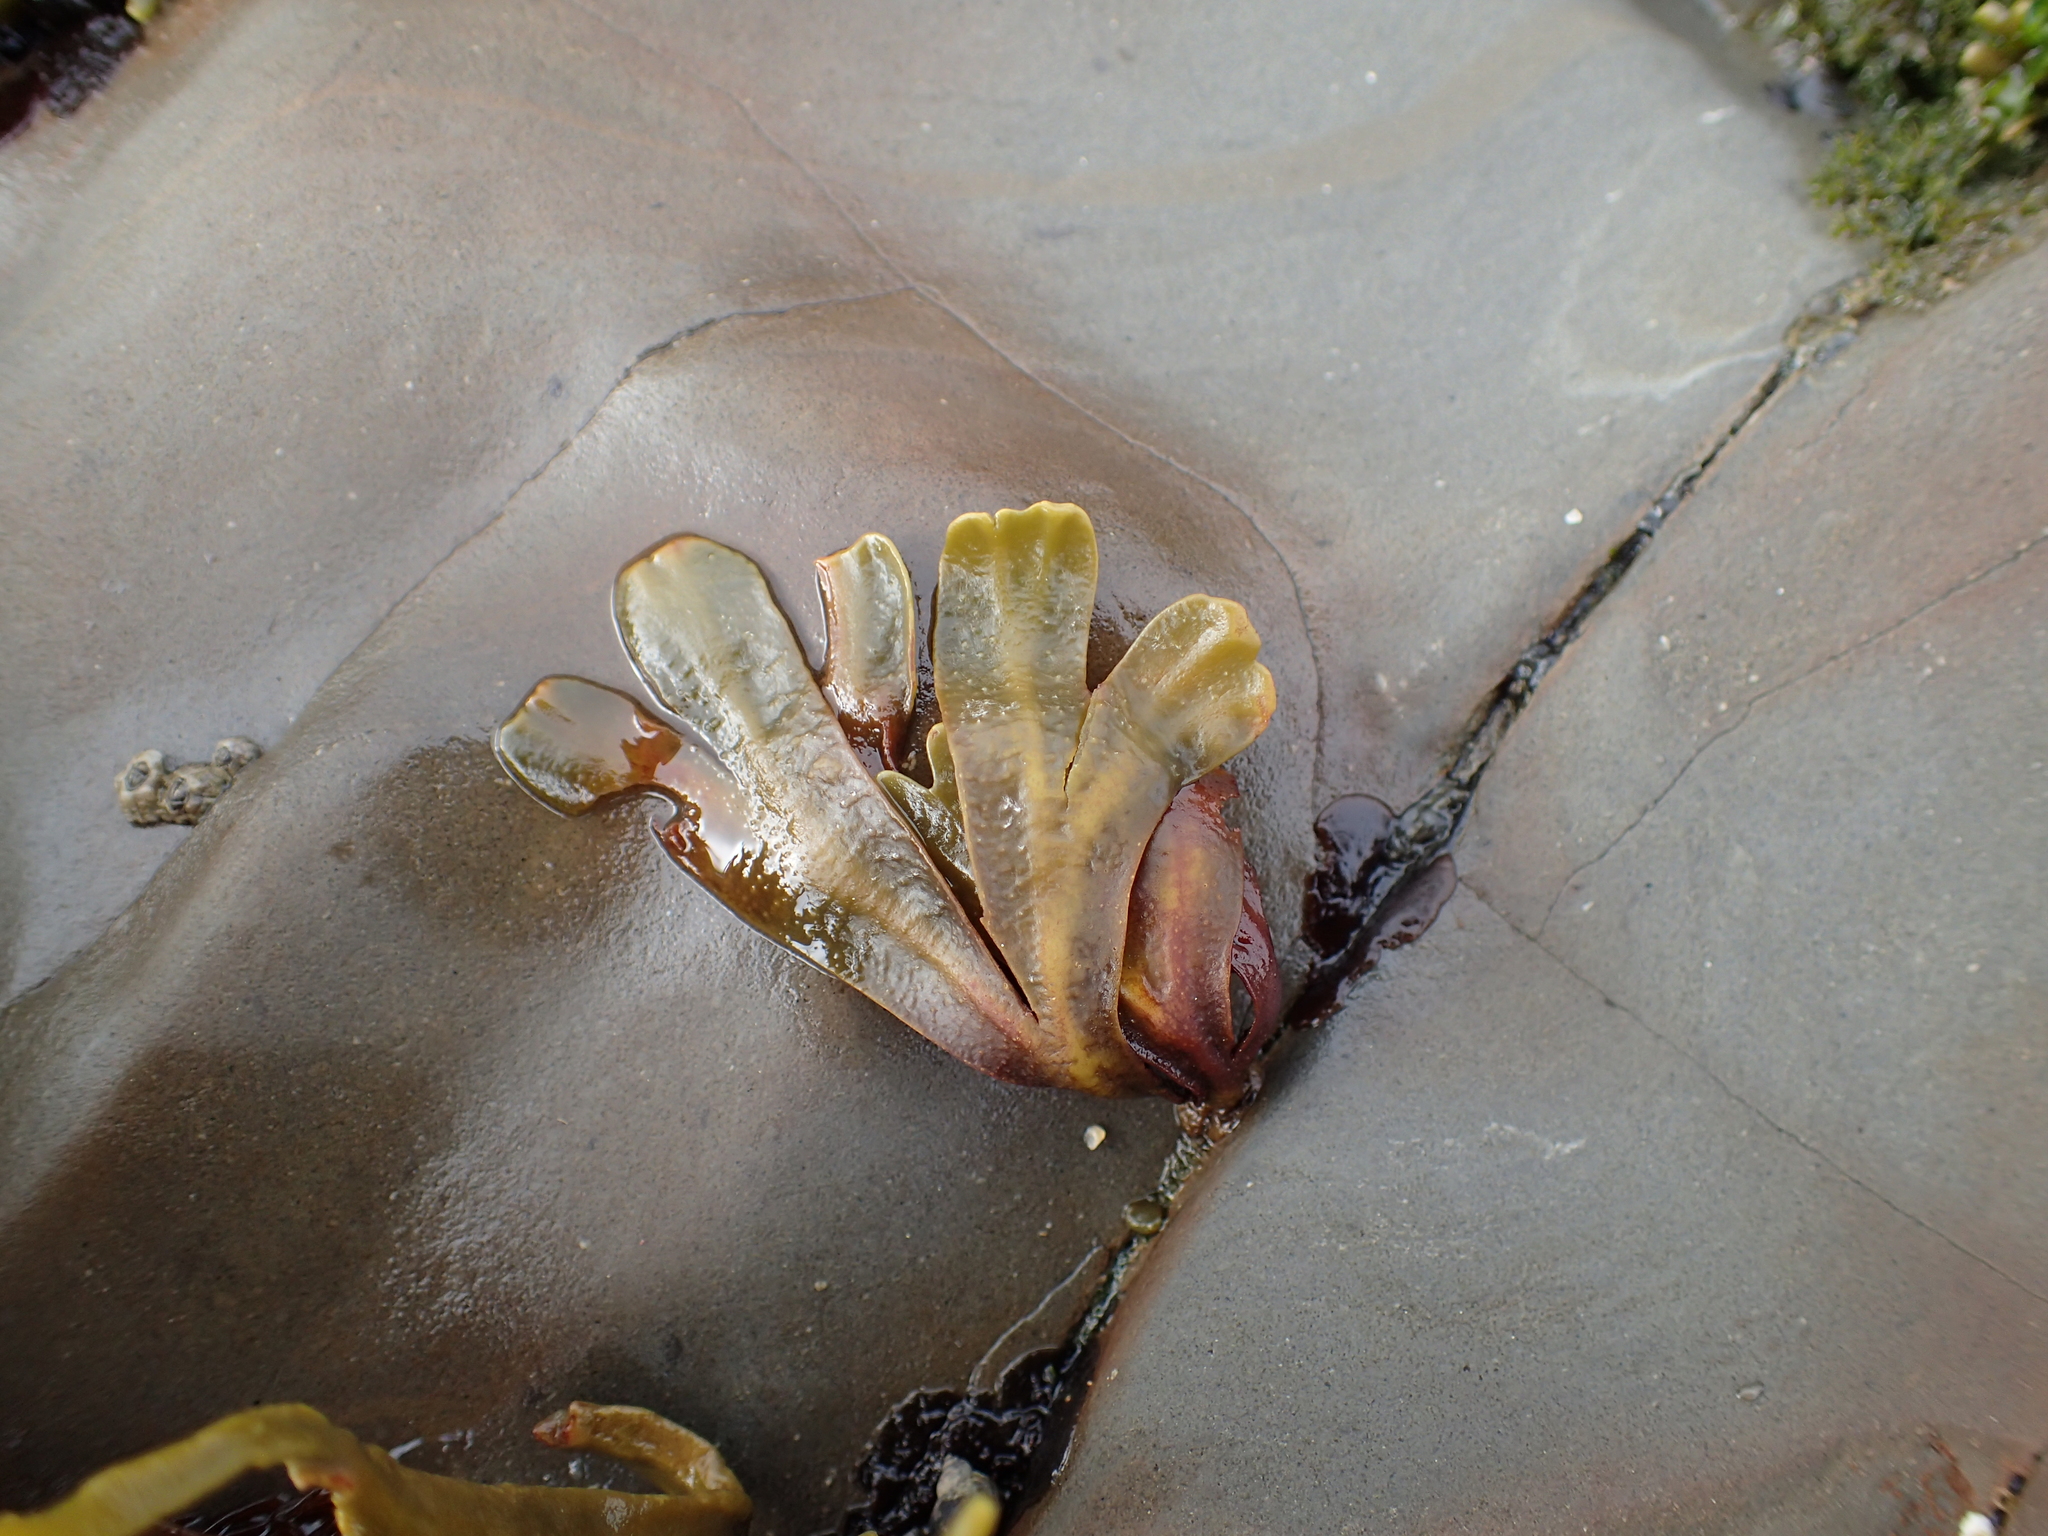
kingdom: Chromista
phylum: Ochrophyta
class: Phaeophyceae
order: Fucales
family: Fucaceae
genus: Fucus
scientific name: Fucus distichus
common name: Rockweed
